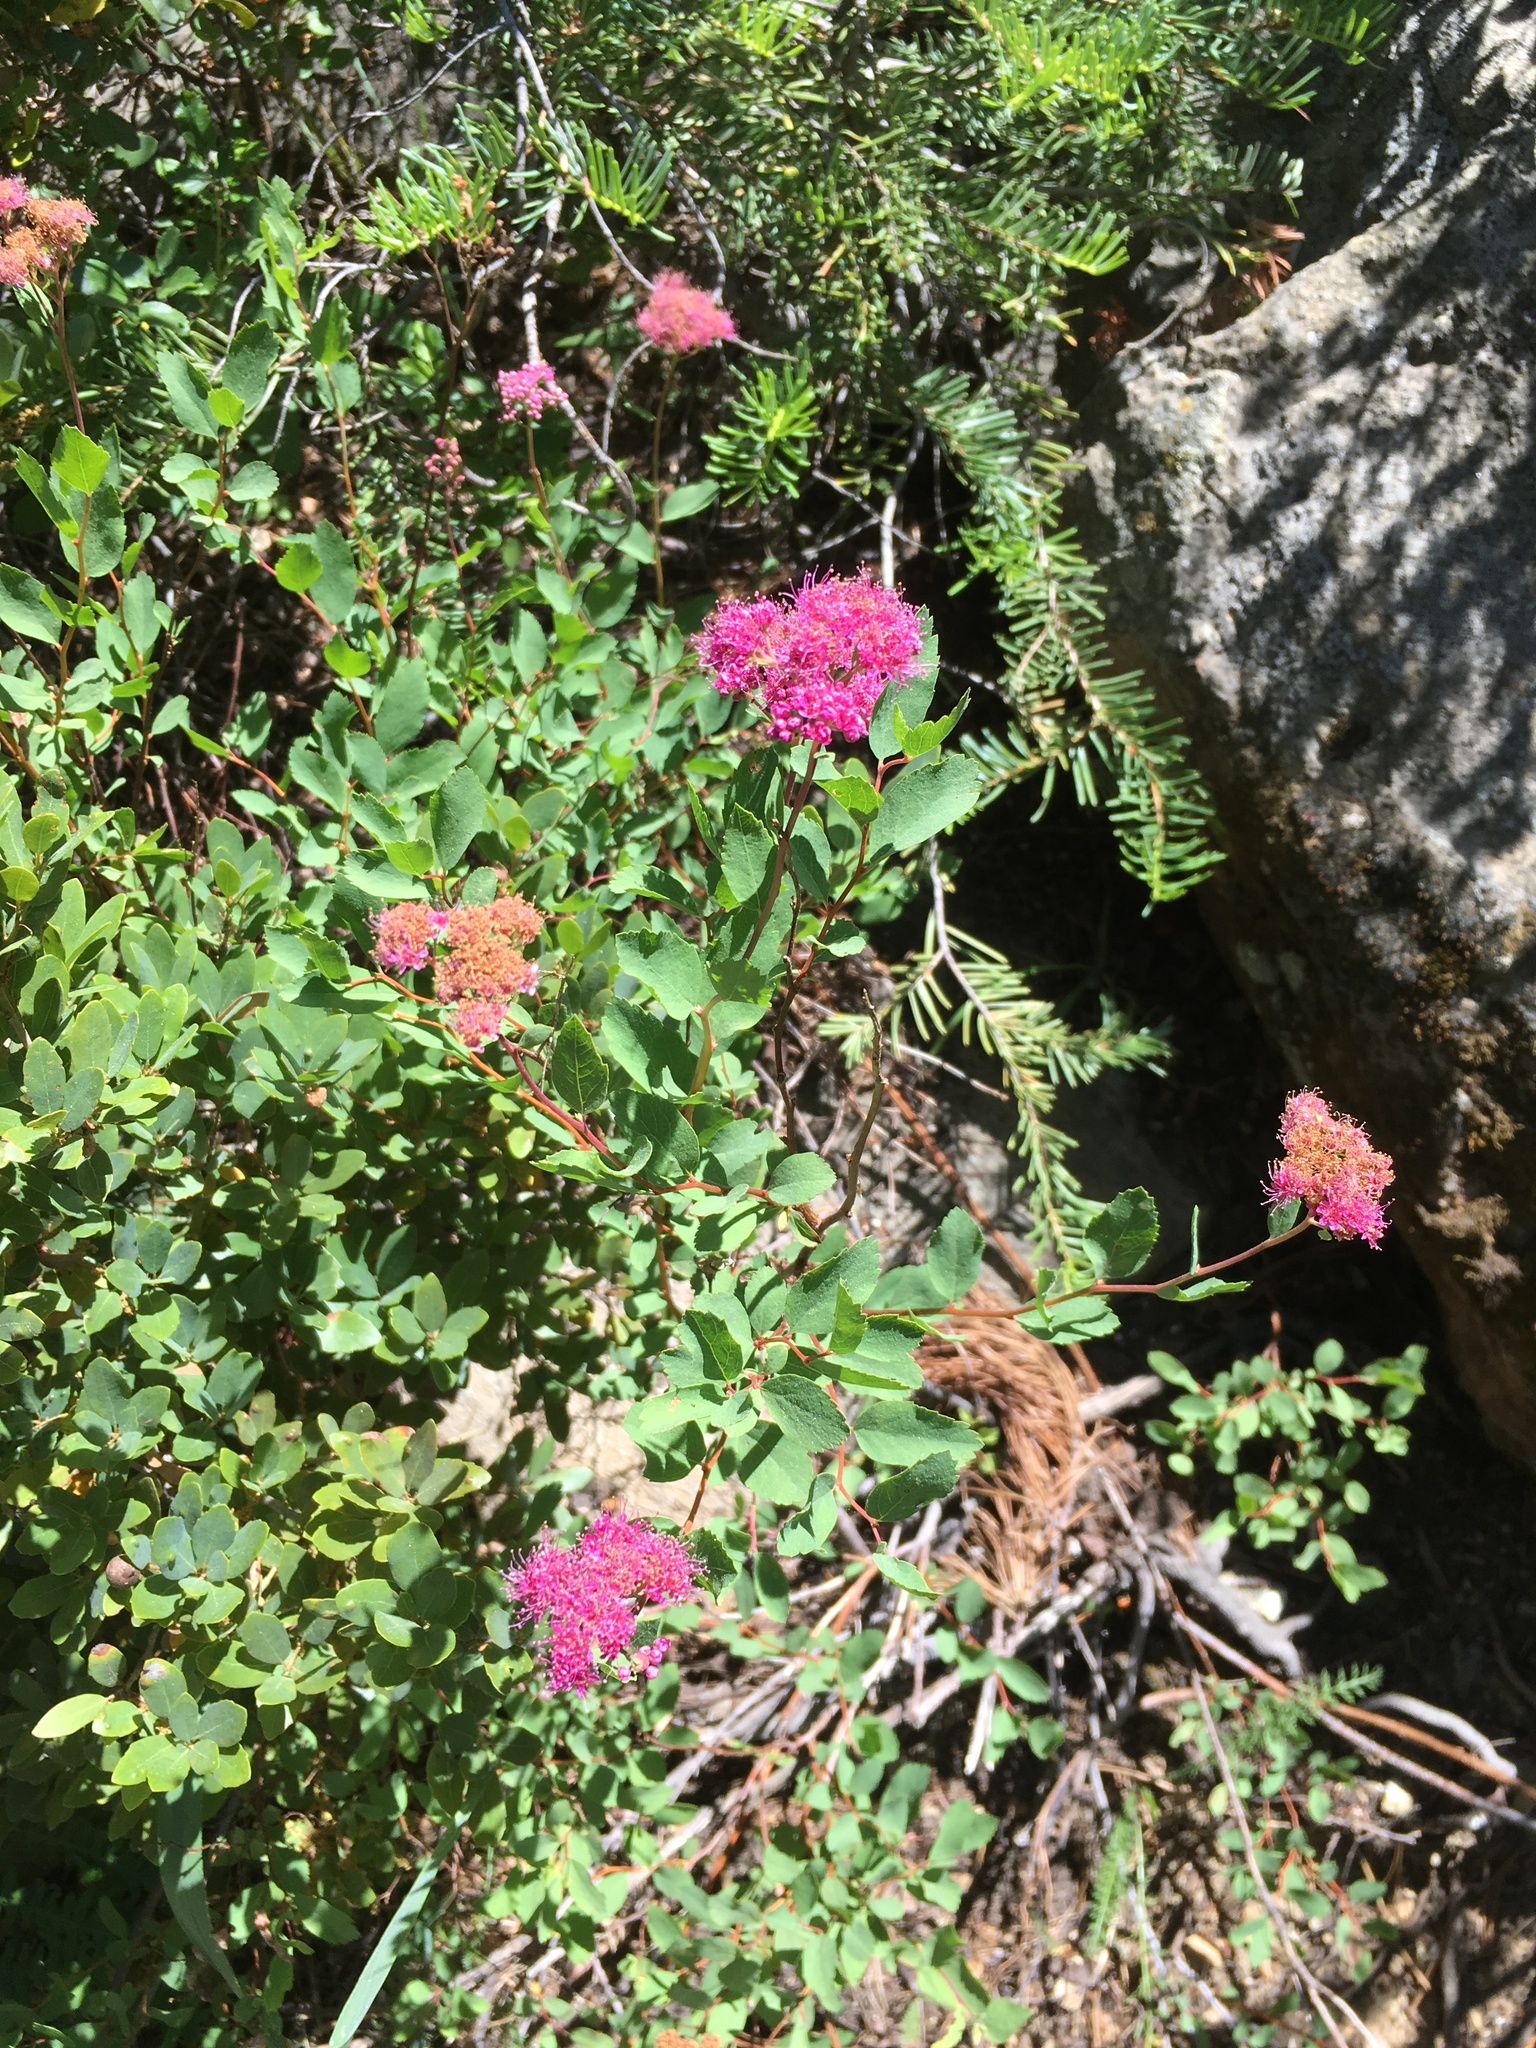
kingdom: Plantae
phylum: Tracheophyta
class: Magnoliopsida
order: Rosales
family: Rosaceae
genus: Spiraea
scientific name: Spiraea splendens
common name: Subalpine meadowsweet
